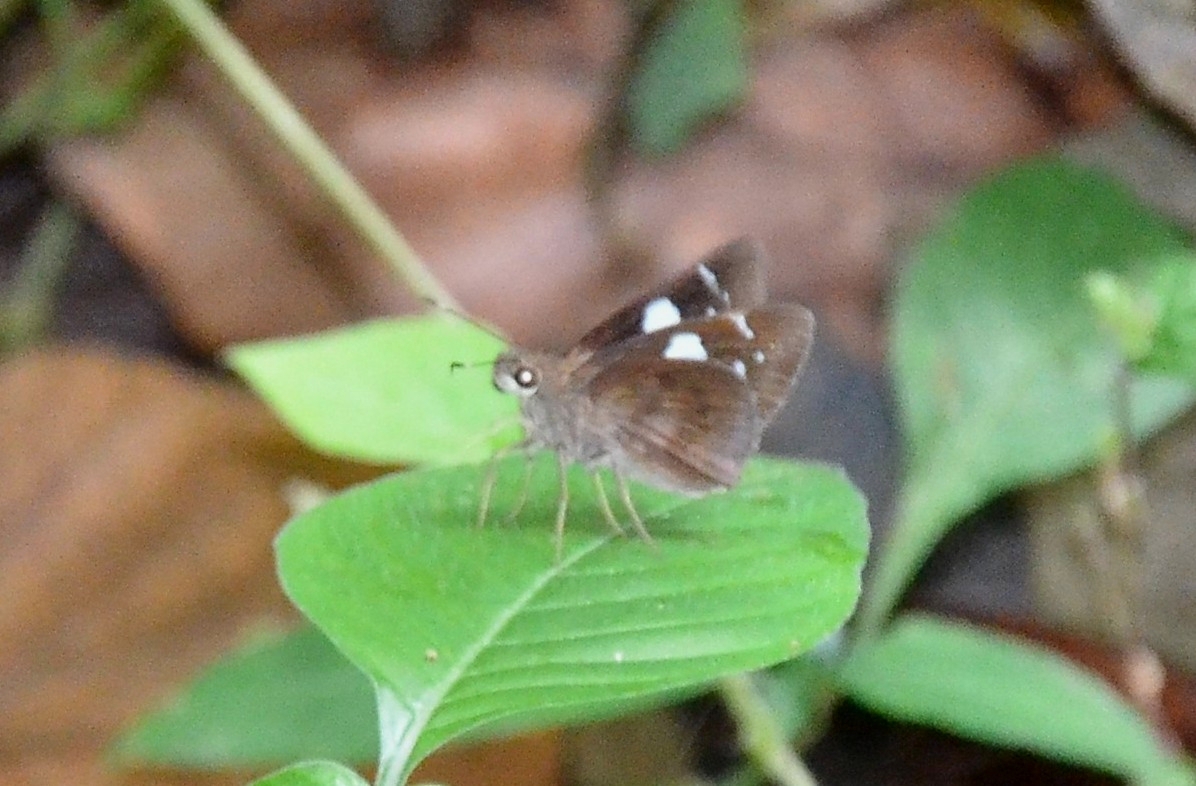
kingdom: Animalia
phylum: Arthropoda
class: Insecta
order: Lepidoptera
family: Hesperiidae
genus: Notocrypta
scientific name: Notocrypta curvifascia
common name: Restricted demon
